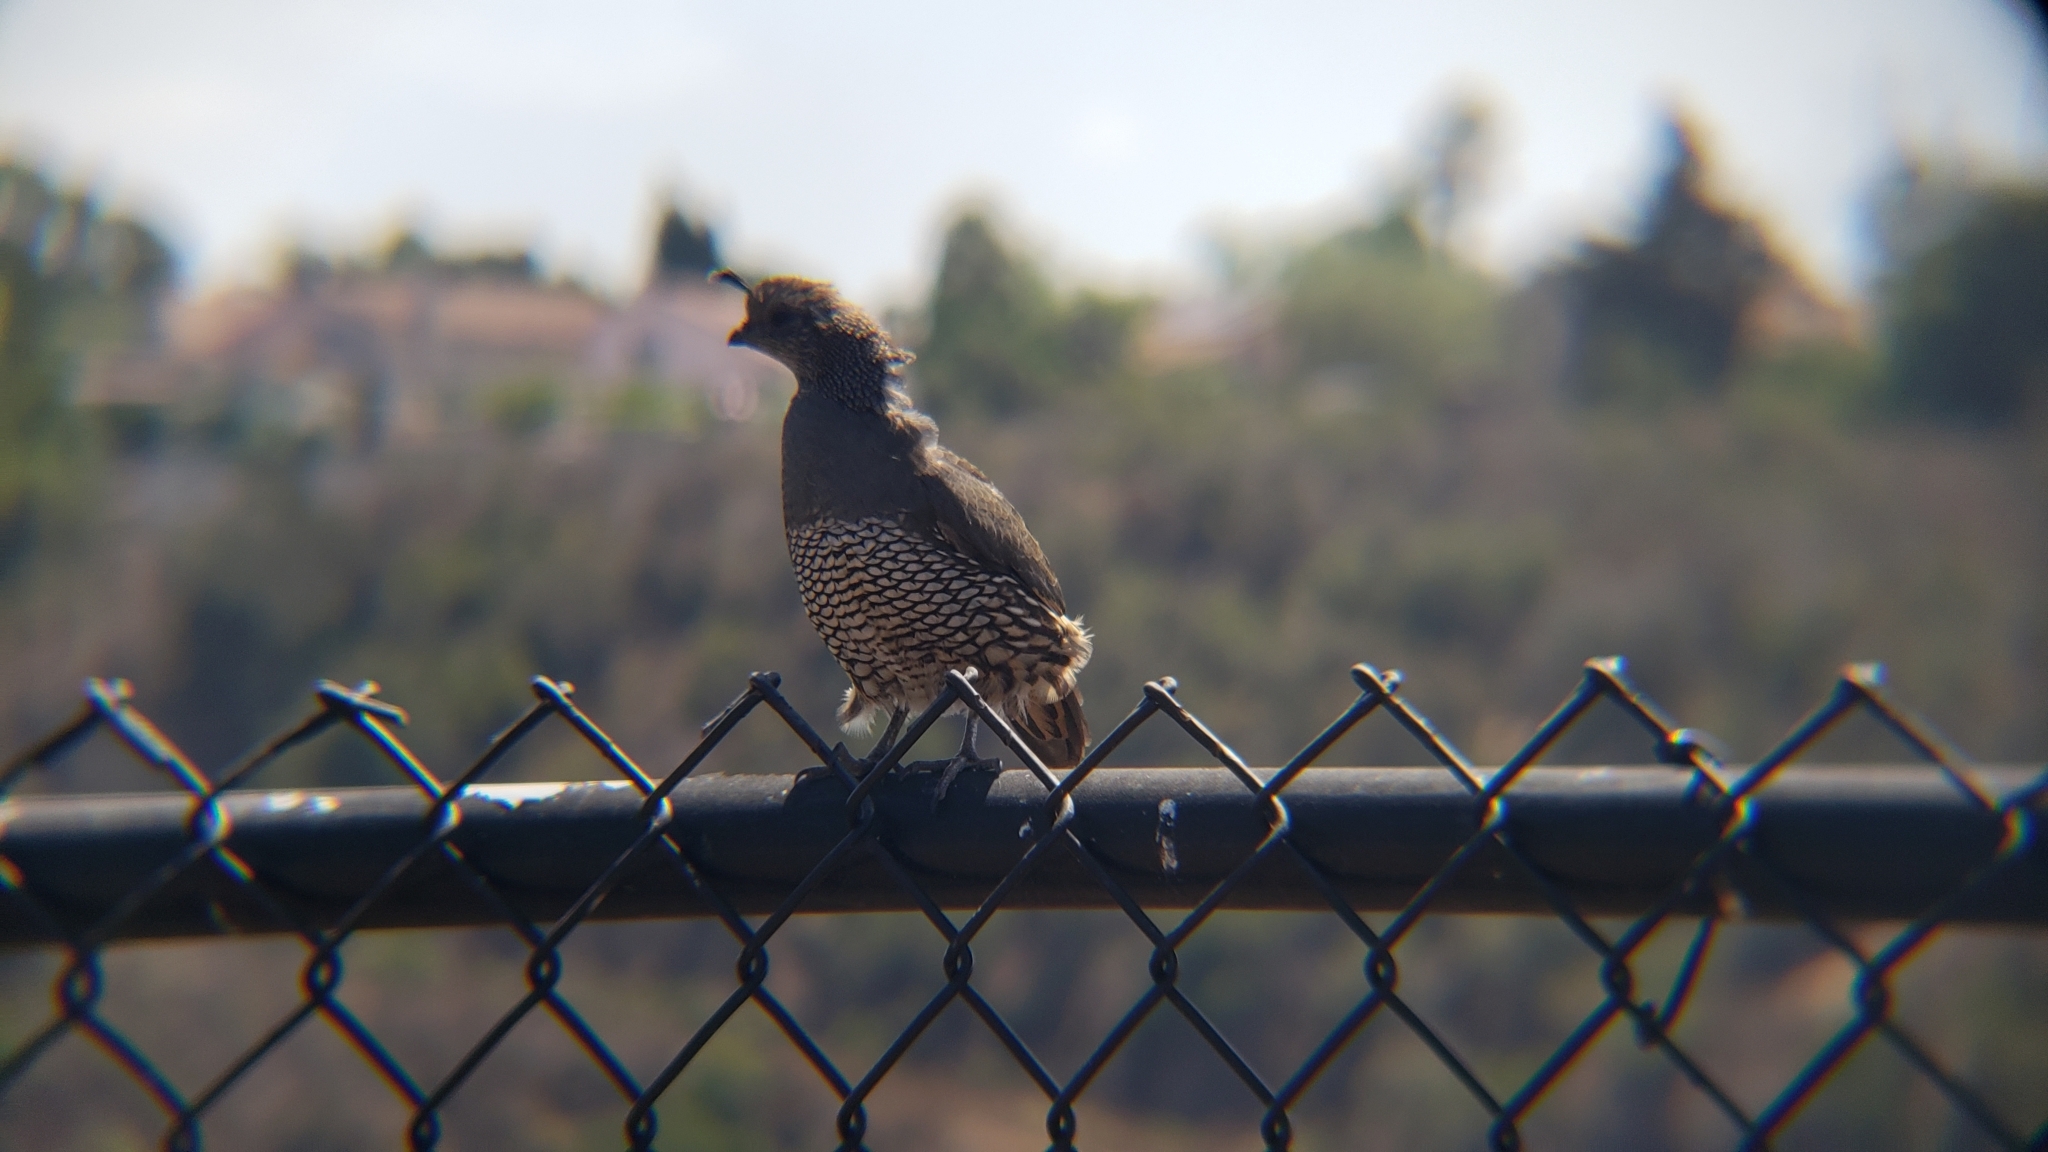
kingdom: Animalia
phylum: Chordata
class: Aves
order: Galliformes
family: Odontophoridae
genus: Callipepla
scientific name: Callipepla californica
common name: California quail
